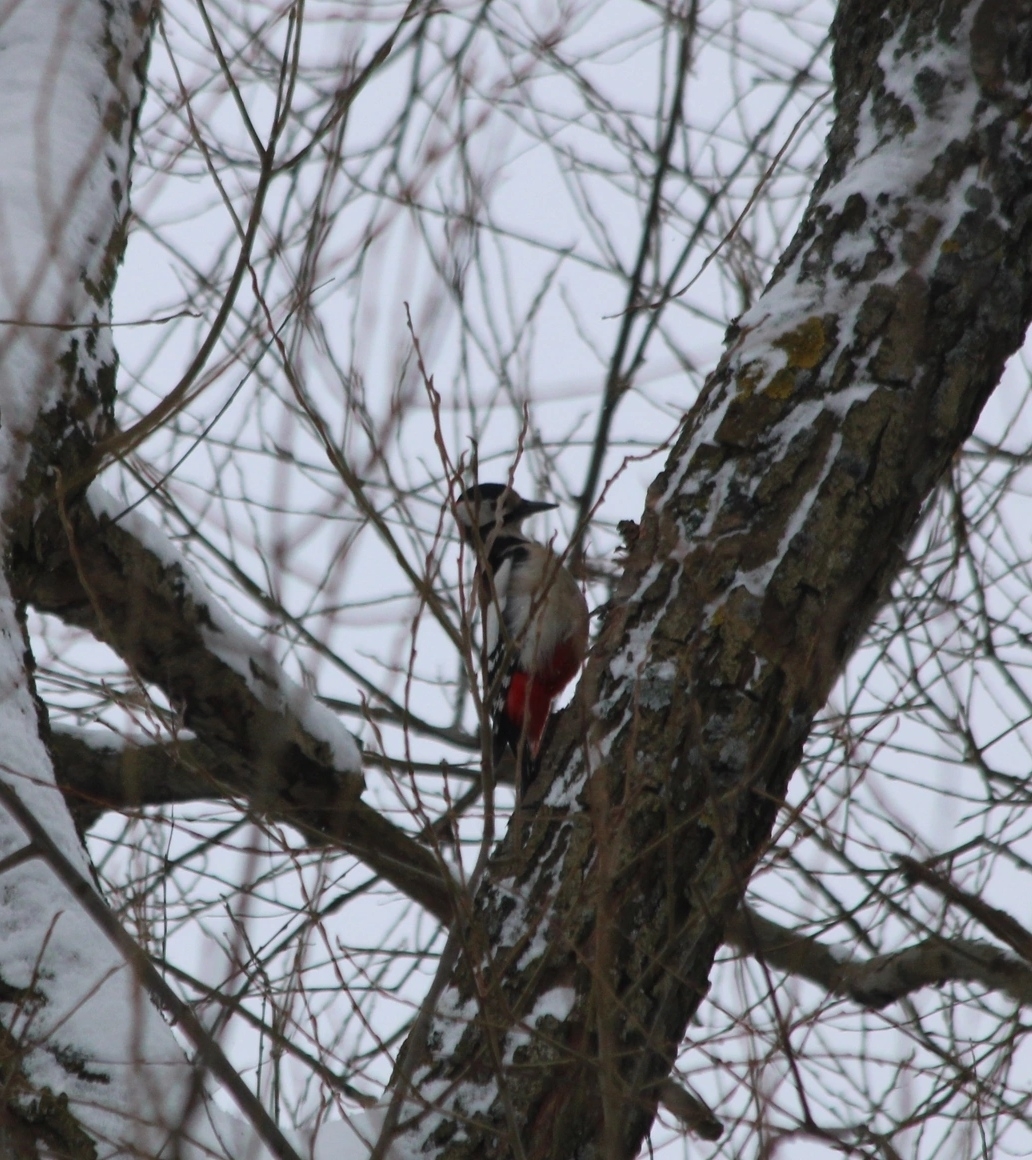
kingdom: Animalia
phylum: Chordata
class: Aves
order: Piciformes
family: Picidae
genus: Dendrocopos
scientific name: Dendrocopos major
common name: Great spotted woodpecker
